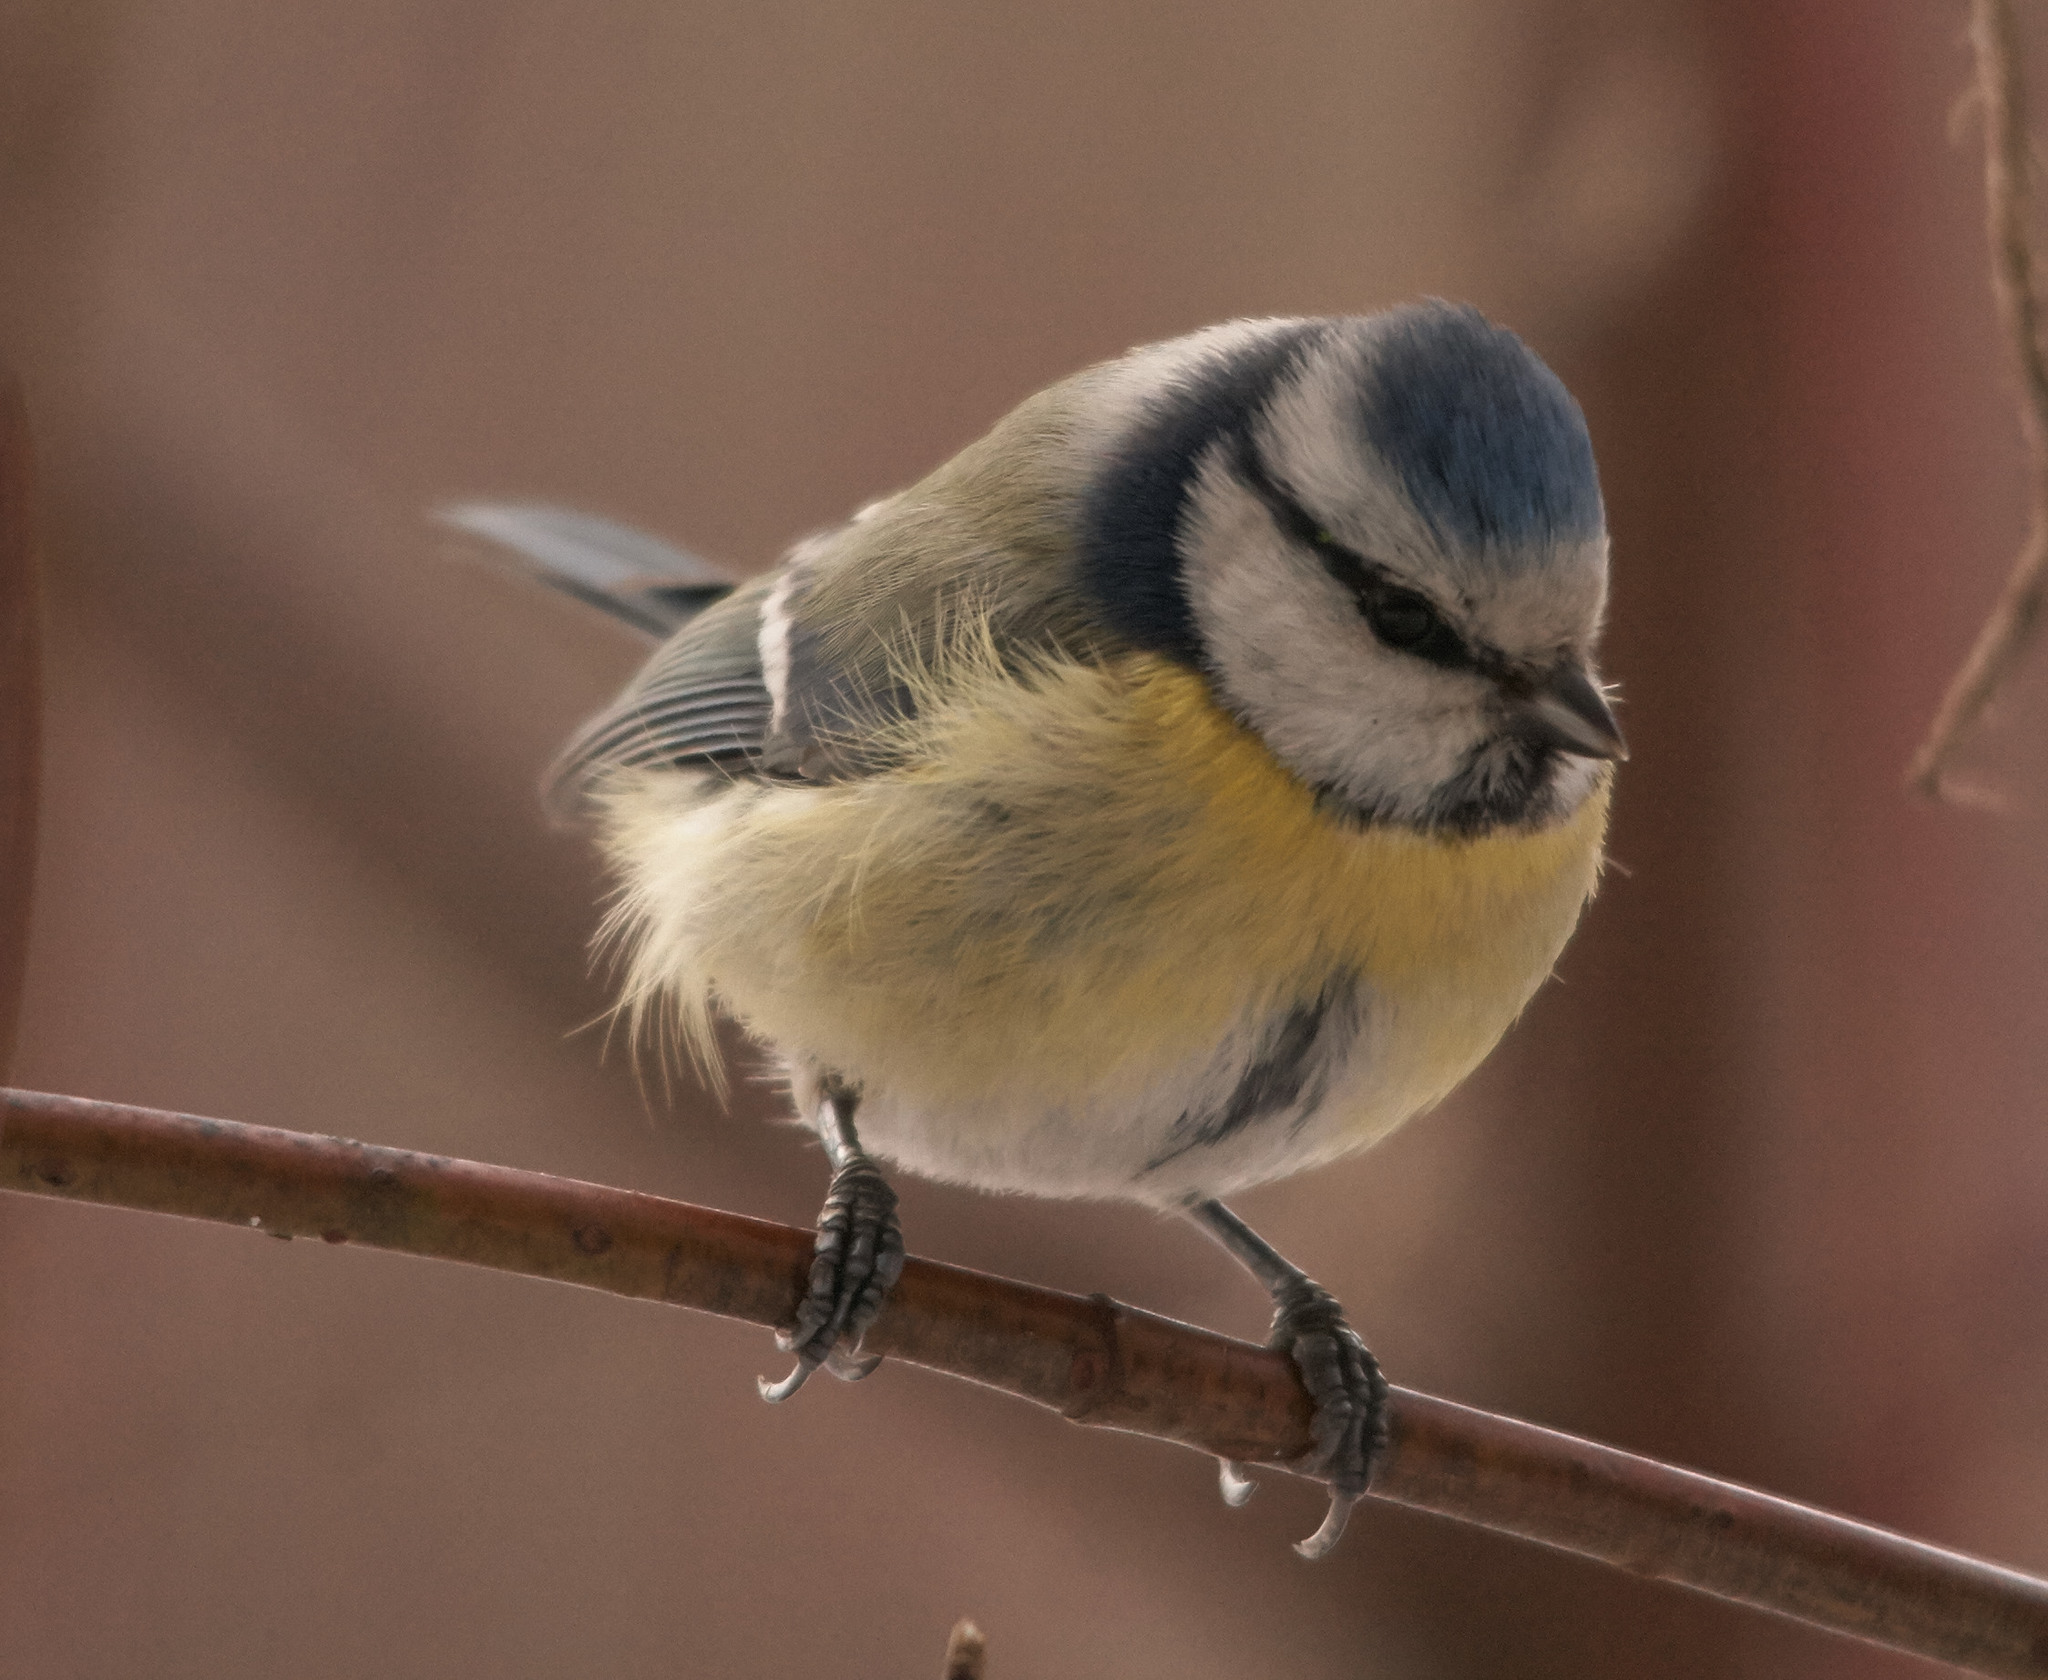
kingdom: Animalia
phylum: Chordata
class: Aves
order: Passeriformes
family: Paridae
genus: Cyanistes
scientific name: Cyanistes caeruleus
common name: Eurasian blue tit
